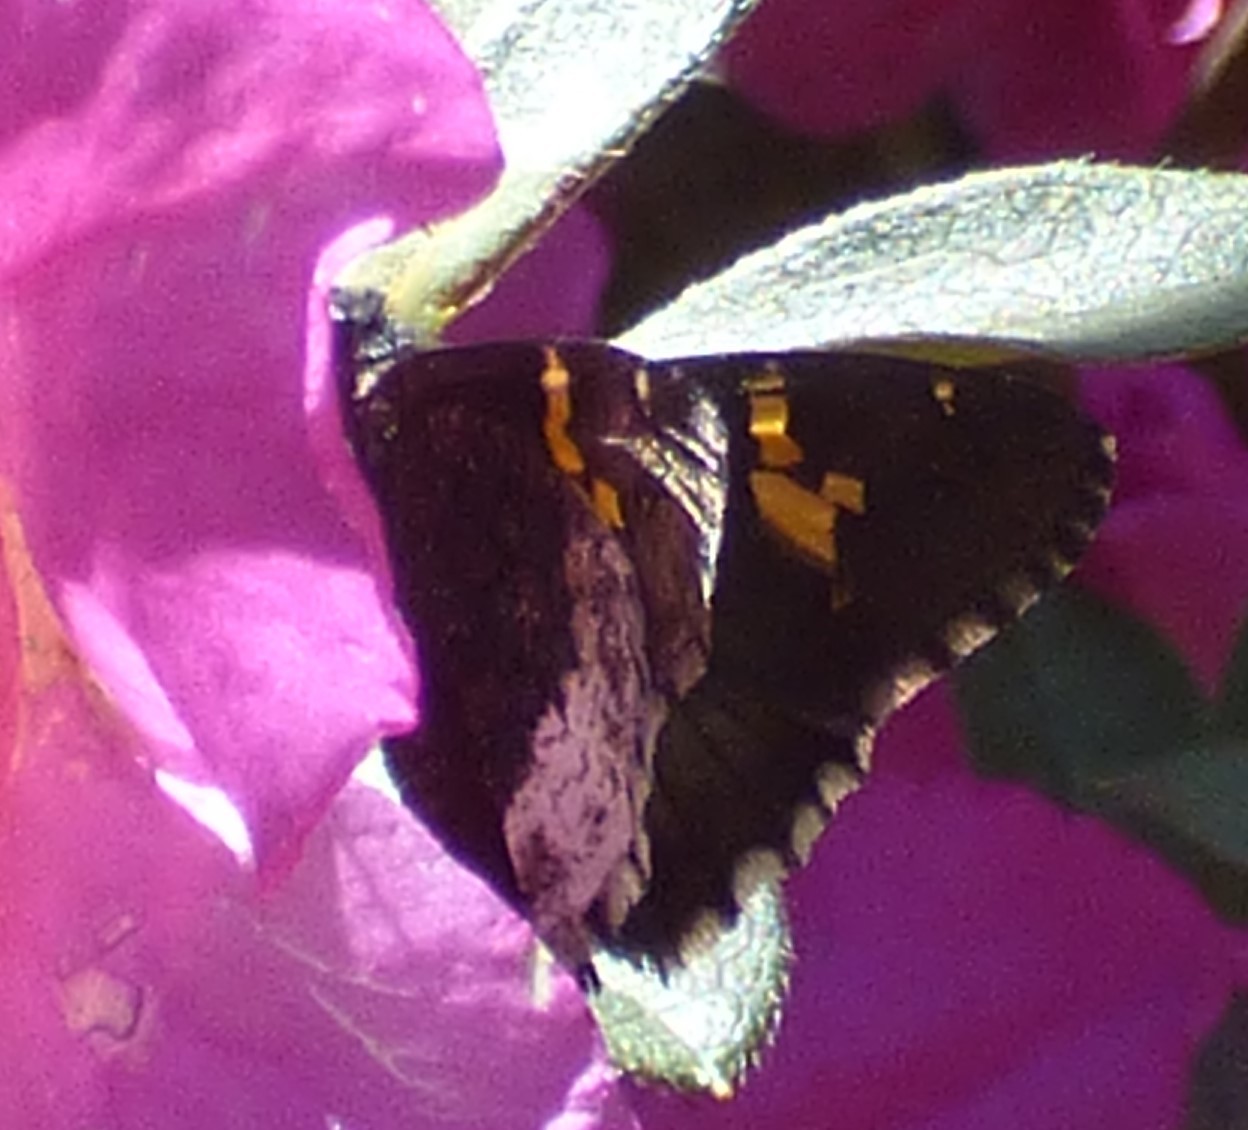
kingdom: Animalia
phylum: Arthropoda
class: Insecta
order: Lepidoptera
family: Hesperiidae
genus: Thorybes
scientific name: Thorybes lyciades
